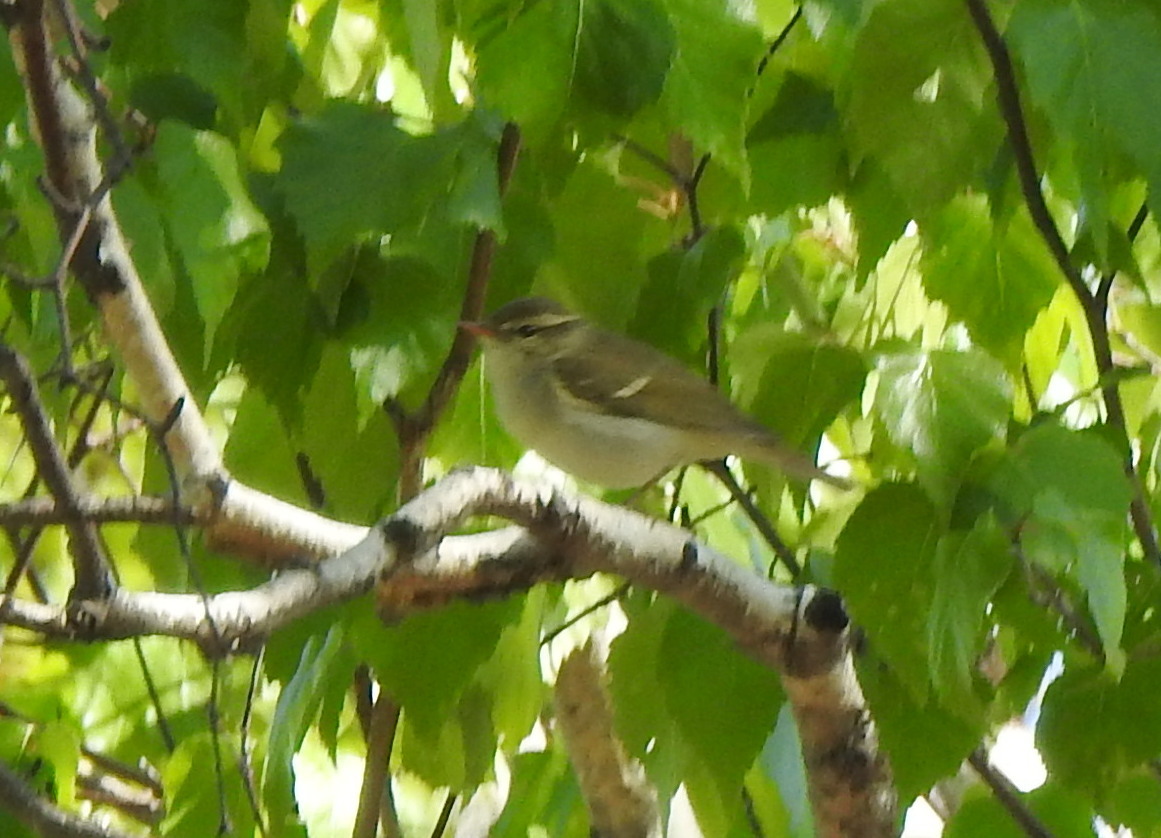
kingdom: Animalia
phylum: Chordata
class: Aves
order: Passeriformes
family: Phylloscopidae
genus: Phylloscopus
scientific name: Phylloscopus inornatus
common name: Yellow-browed warbler
